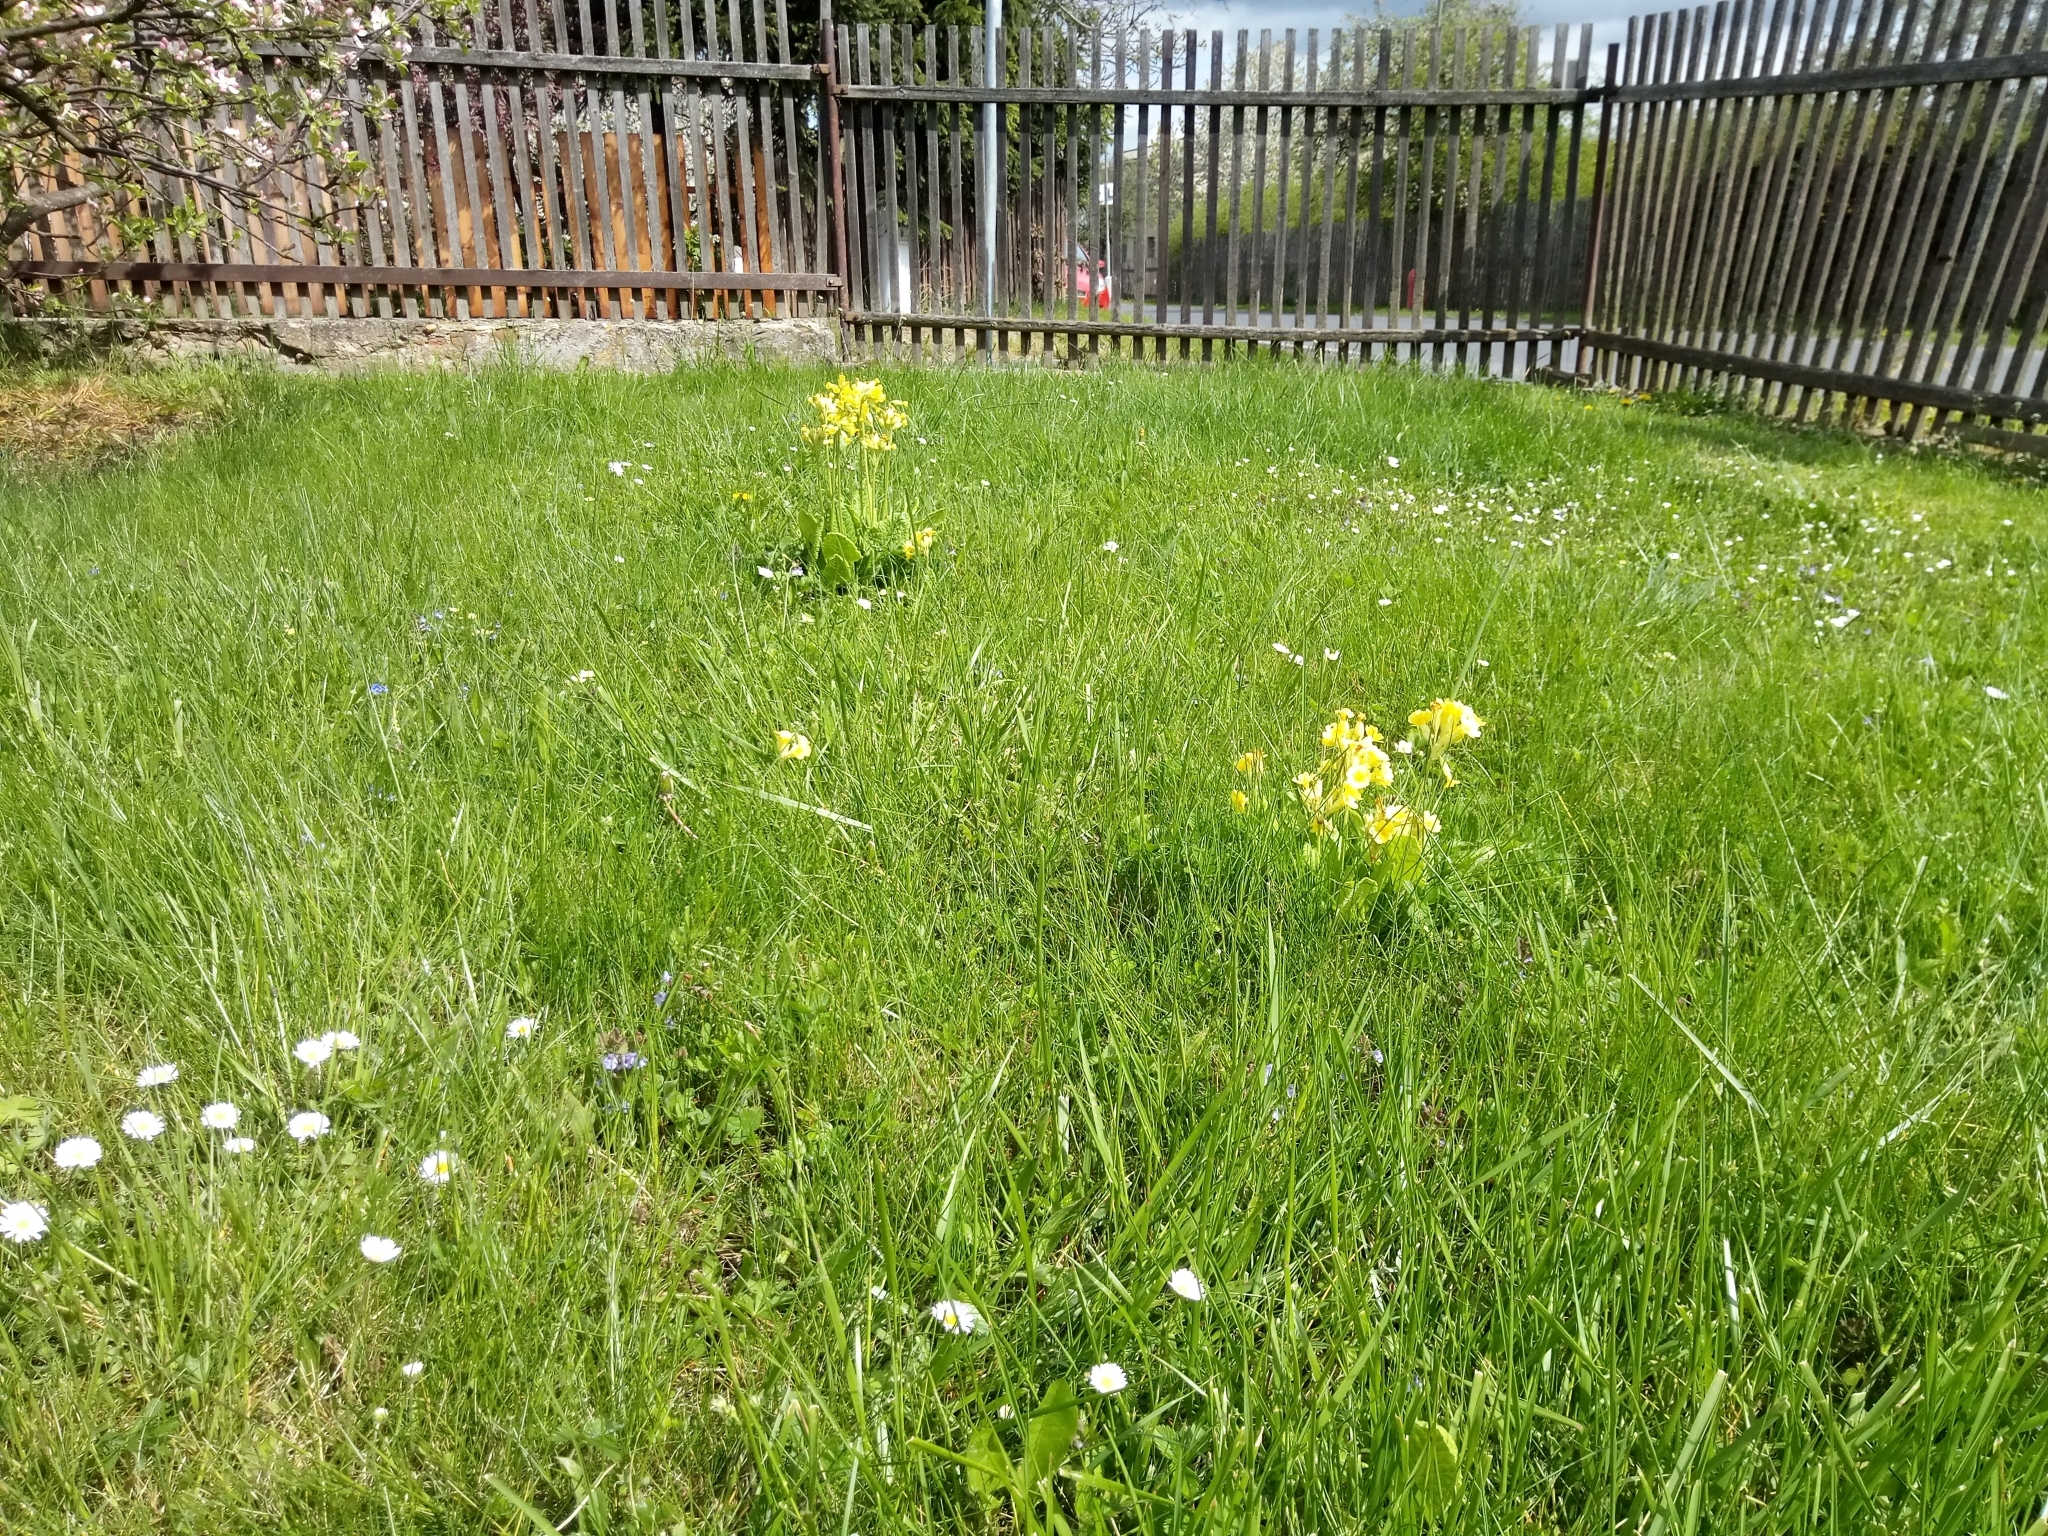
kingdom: Plantae
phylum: Tracheophyta
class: Magnoliopsida
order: Ericales
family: Primulaceae
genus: Primula
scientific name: Primula veris
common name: Cowslip
